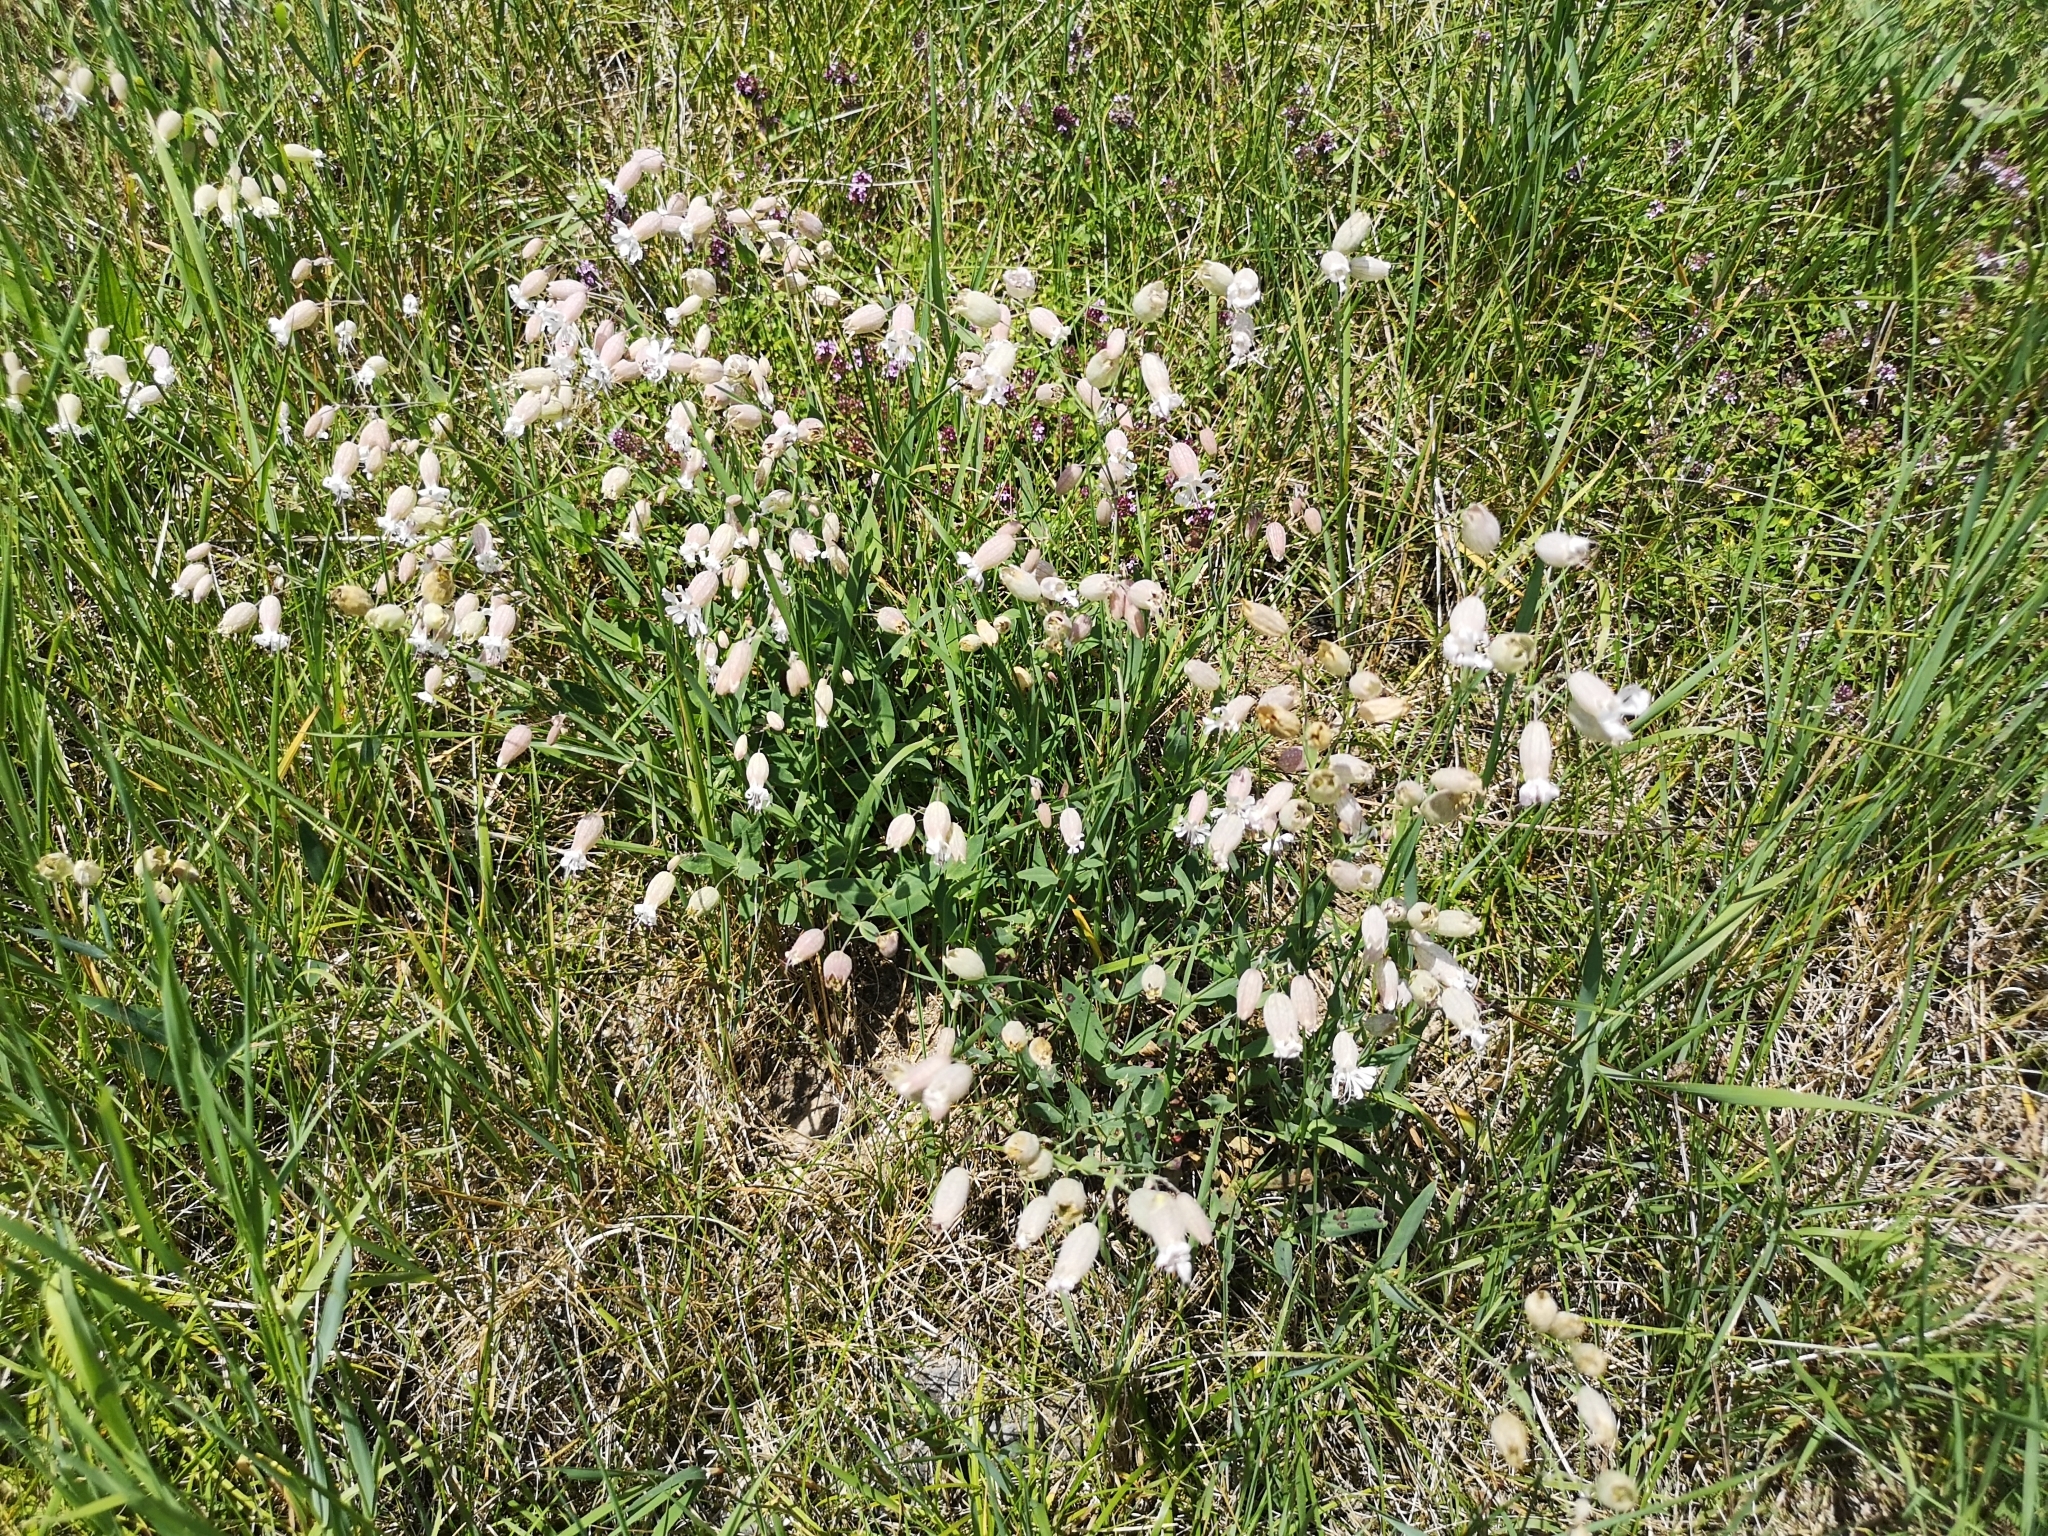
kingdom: Plantae
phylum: Tracheophyta
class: Magnoliopsida
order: Caryophyllales
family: Caryophyllaceae
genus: Silene
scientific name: Silene vulgaris
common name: Bladder campion
